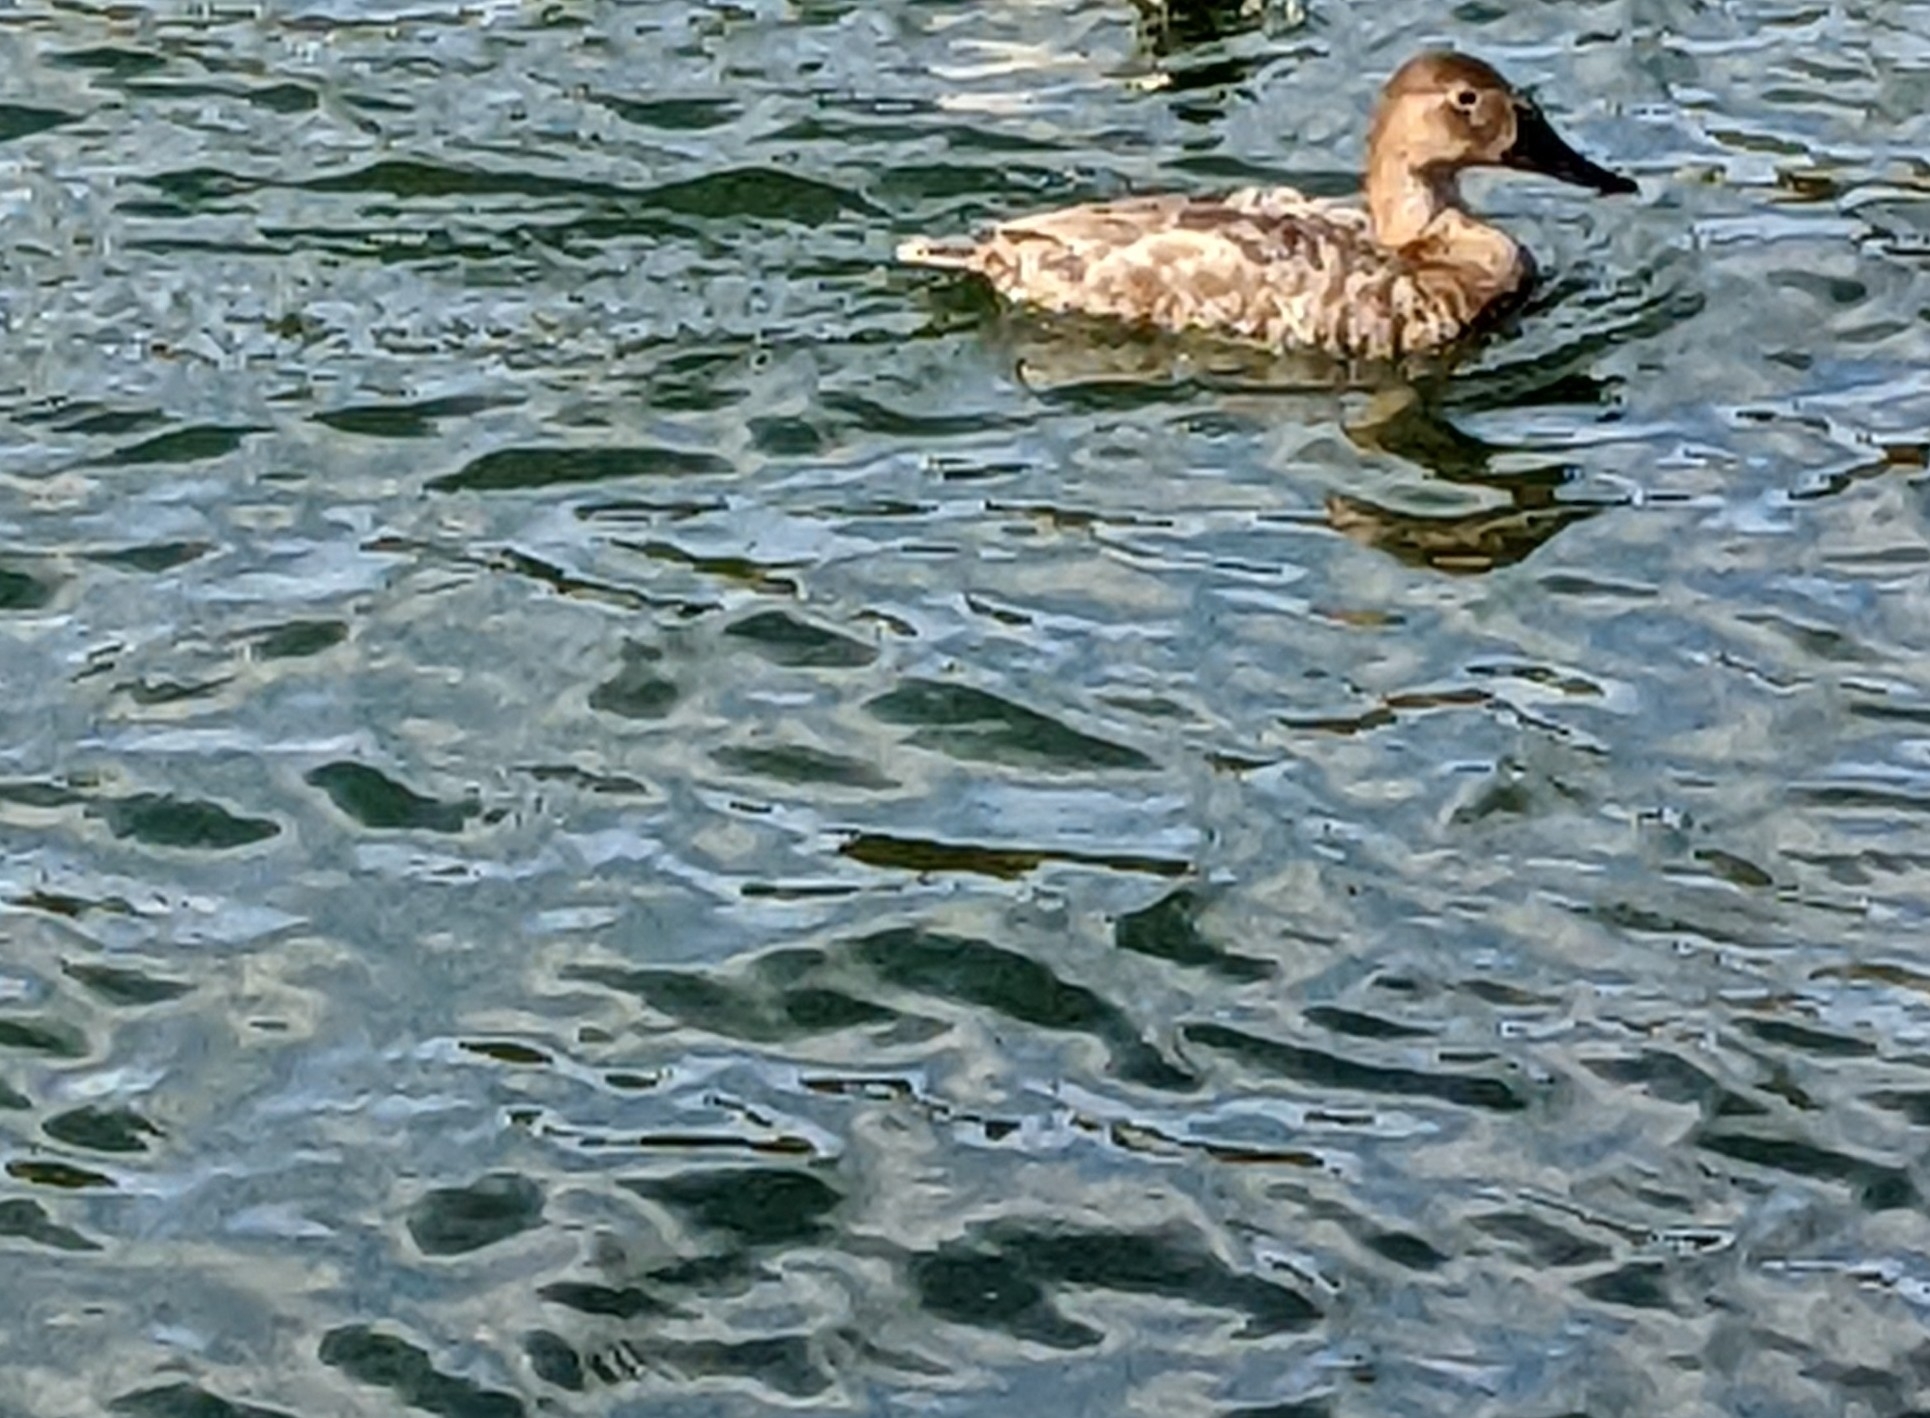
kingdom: Animalia
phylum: Chordata
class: Aves
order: Anseriformes
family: Anatidae
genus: Aythya
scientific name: Aythya valisineria
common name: Canvasback
